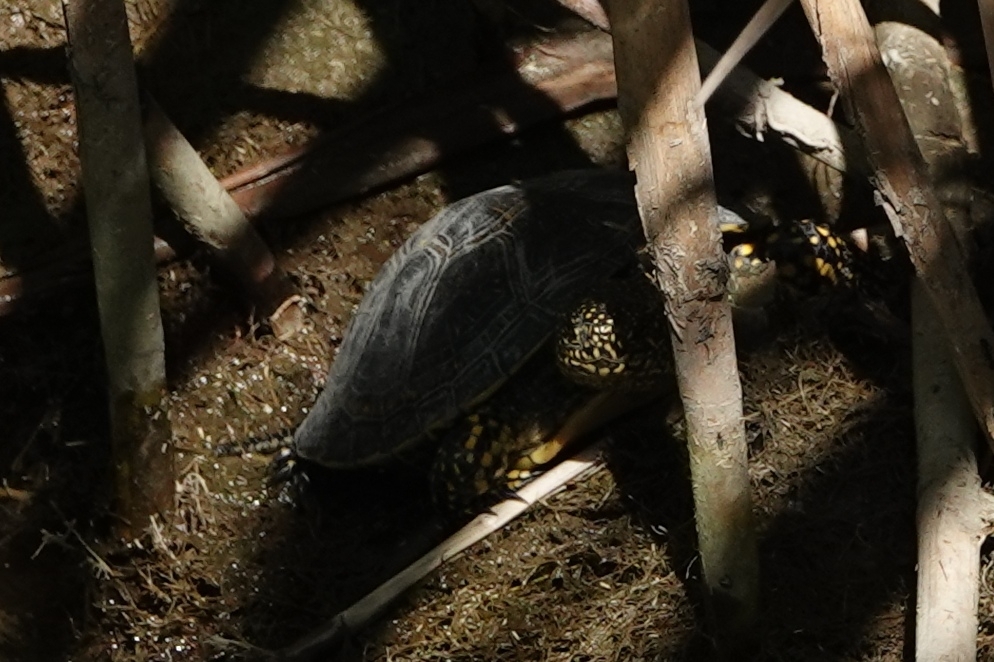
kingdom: Animalia
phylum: Chordata
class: Testudines
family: Emydidae
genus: Emys
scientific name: Emys orbicularis
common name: European pond turtle
